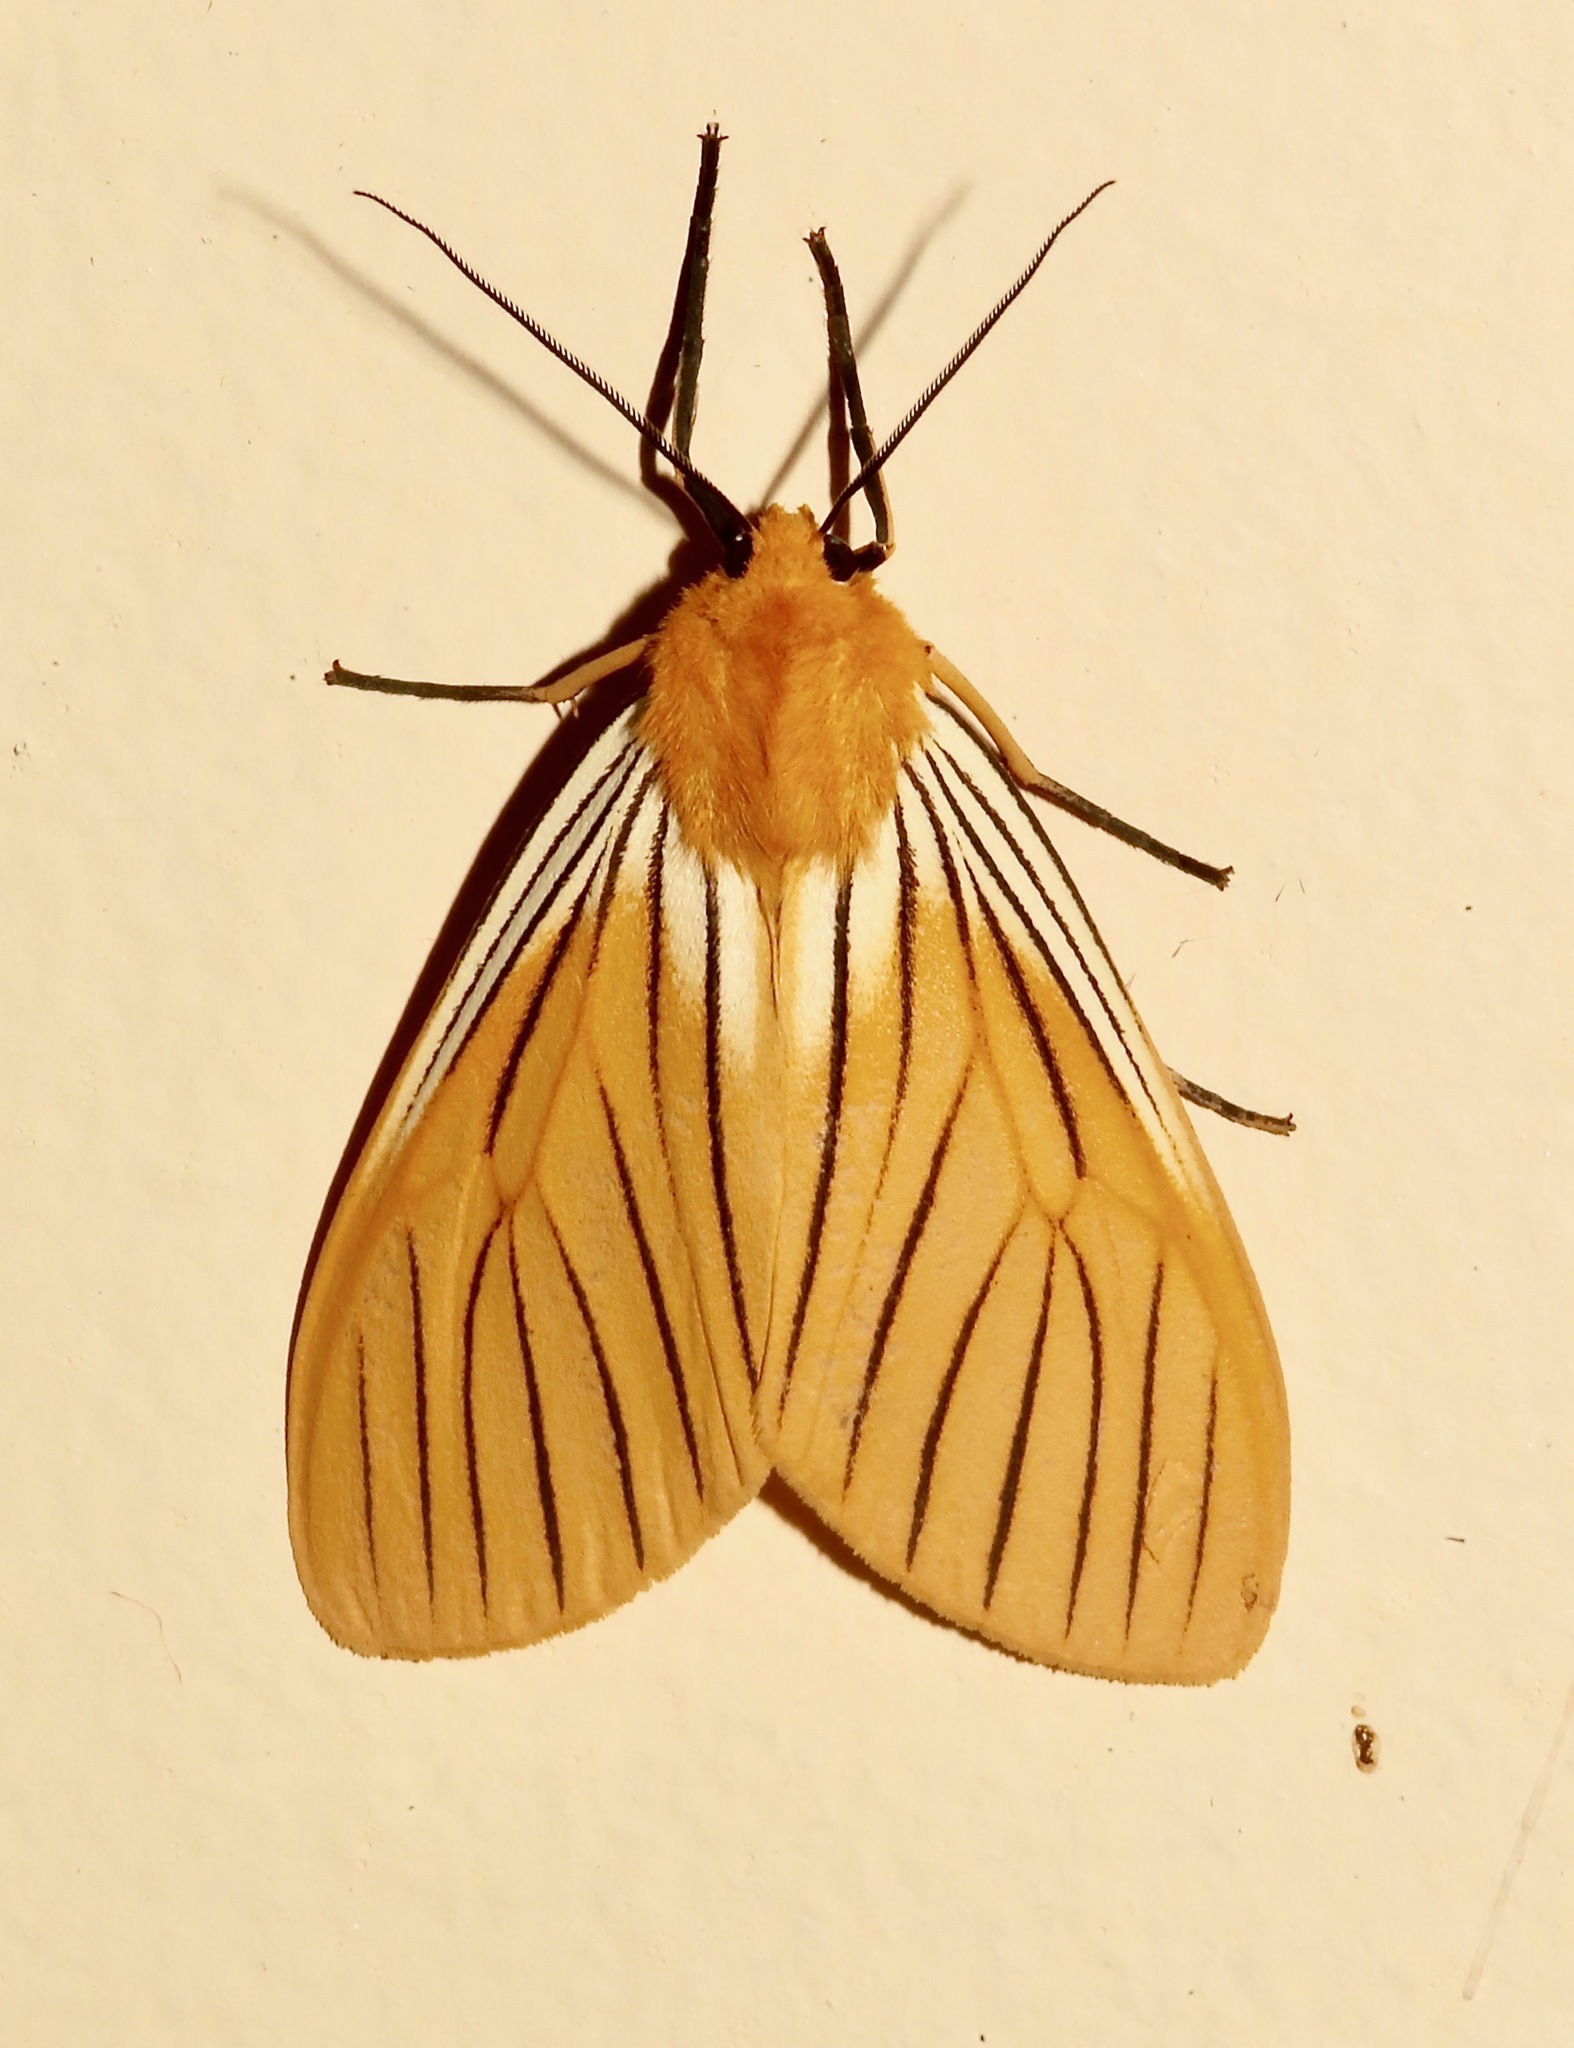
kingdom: Animalia
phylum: Arthropoda
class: Insecta
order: Lepidoptera
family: Erebidae
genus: Pseudischnocampa
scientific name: Pseudischnocampa
